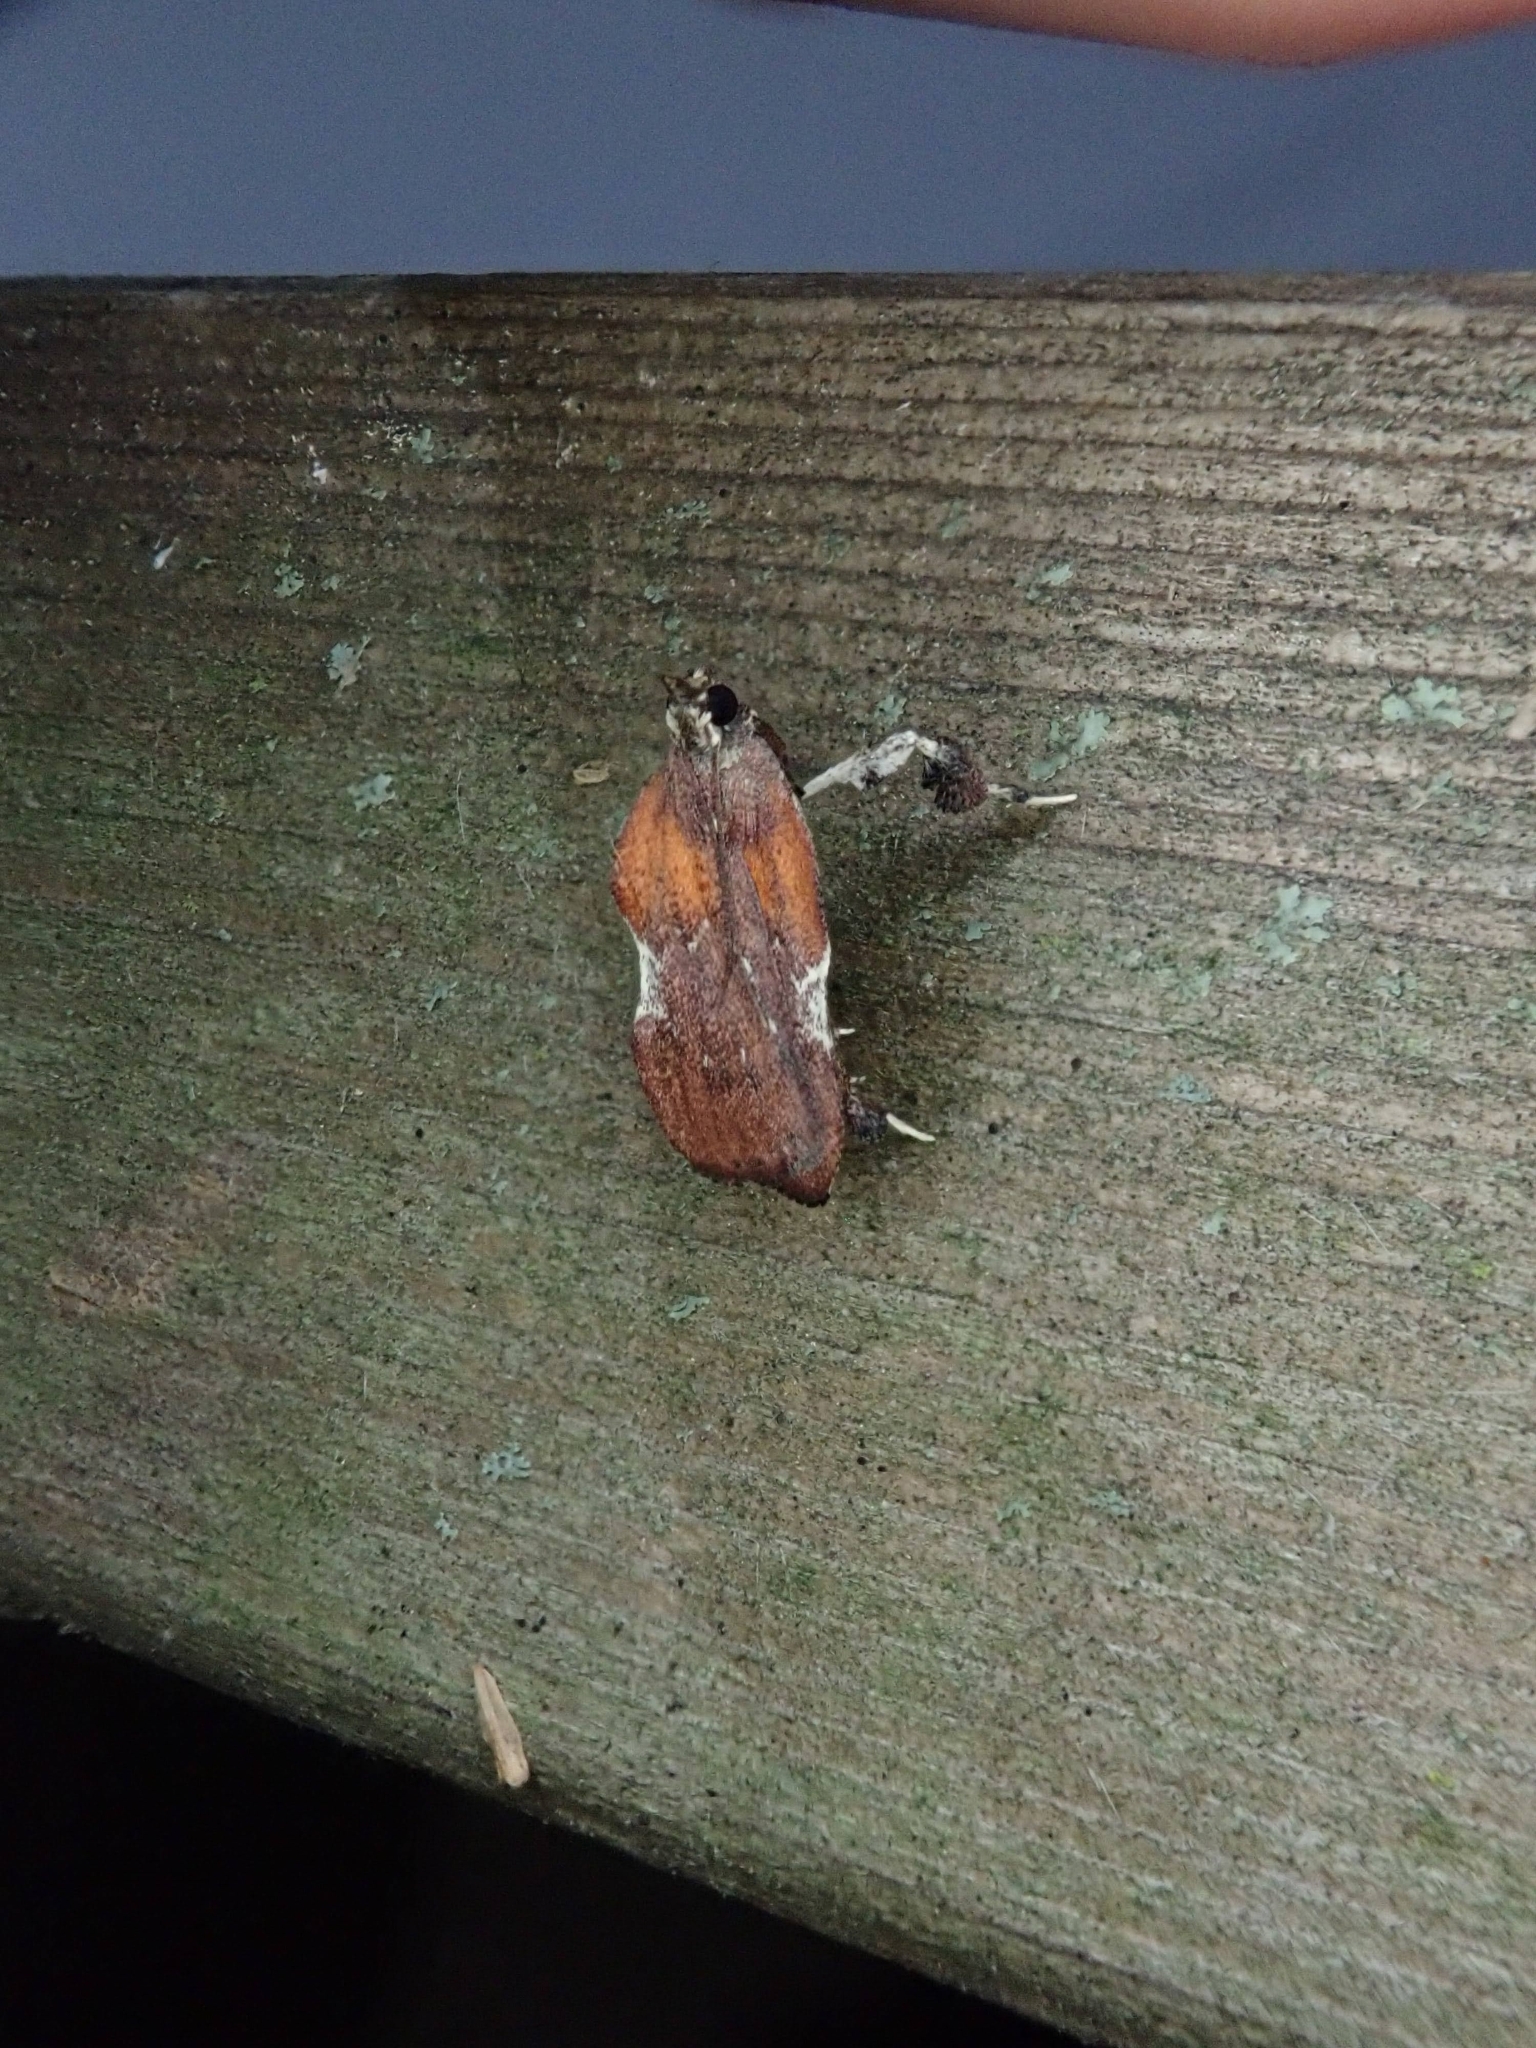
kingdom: Animalia
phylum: Arthropoda
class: Insecta
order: Lepidoptera
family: Pyralidae
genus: Galasa
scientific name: Galasa nigrinodis
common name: Boxwood leaftier moth
